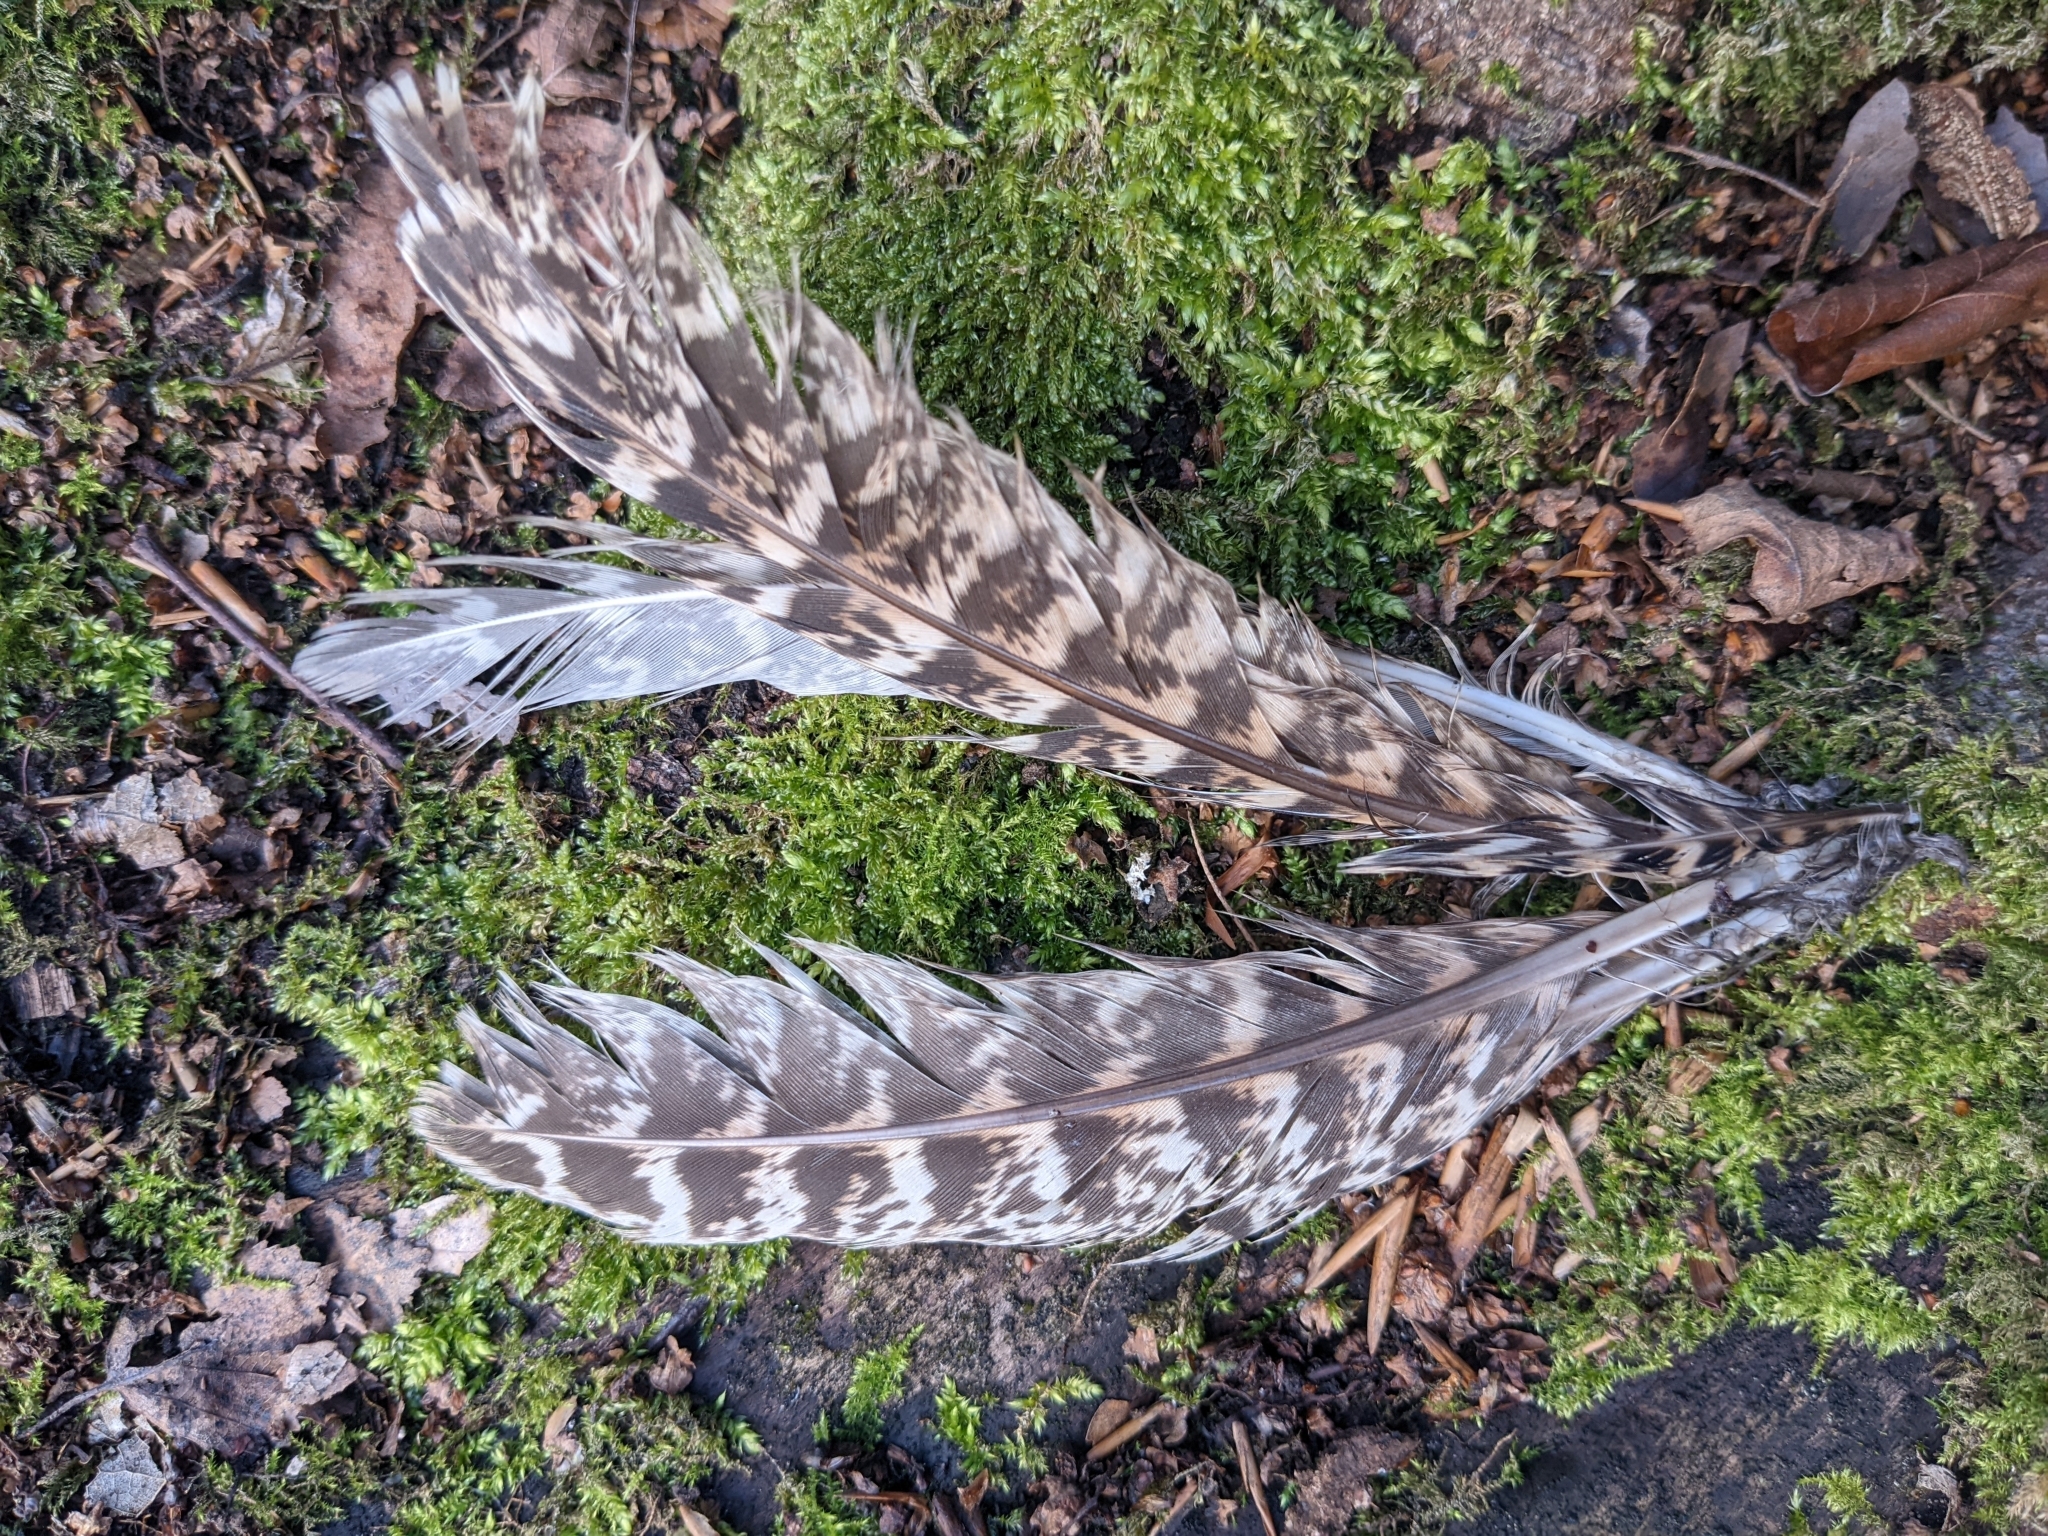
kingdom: Animalia
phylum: Chordata
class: Aves
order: Galliformes
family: Phasianidae
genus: Phasianus
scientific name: Phasianus colchicus
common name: Common pheasant
